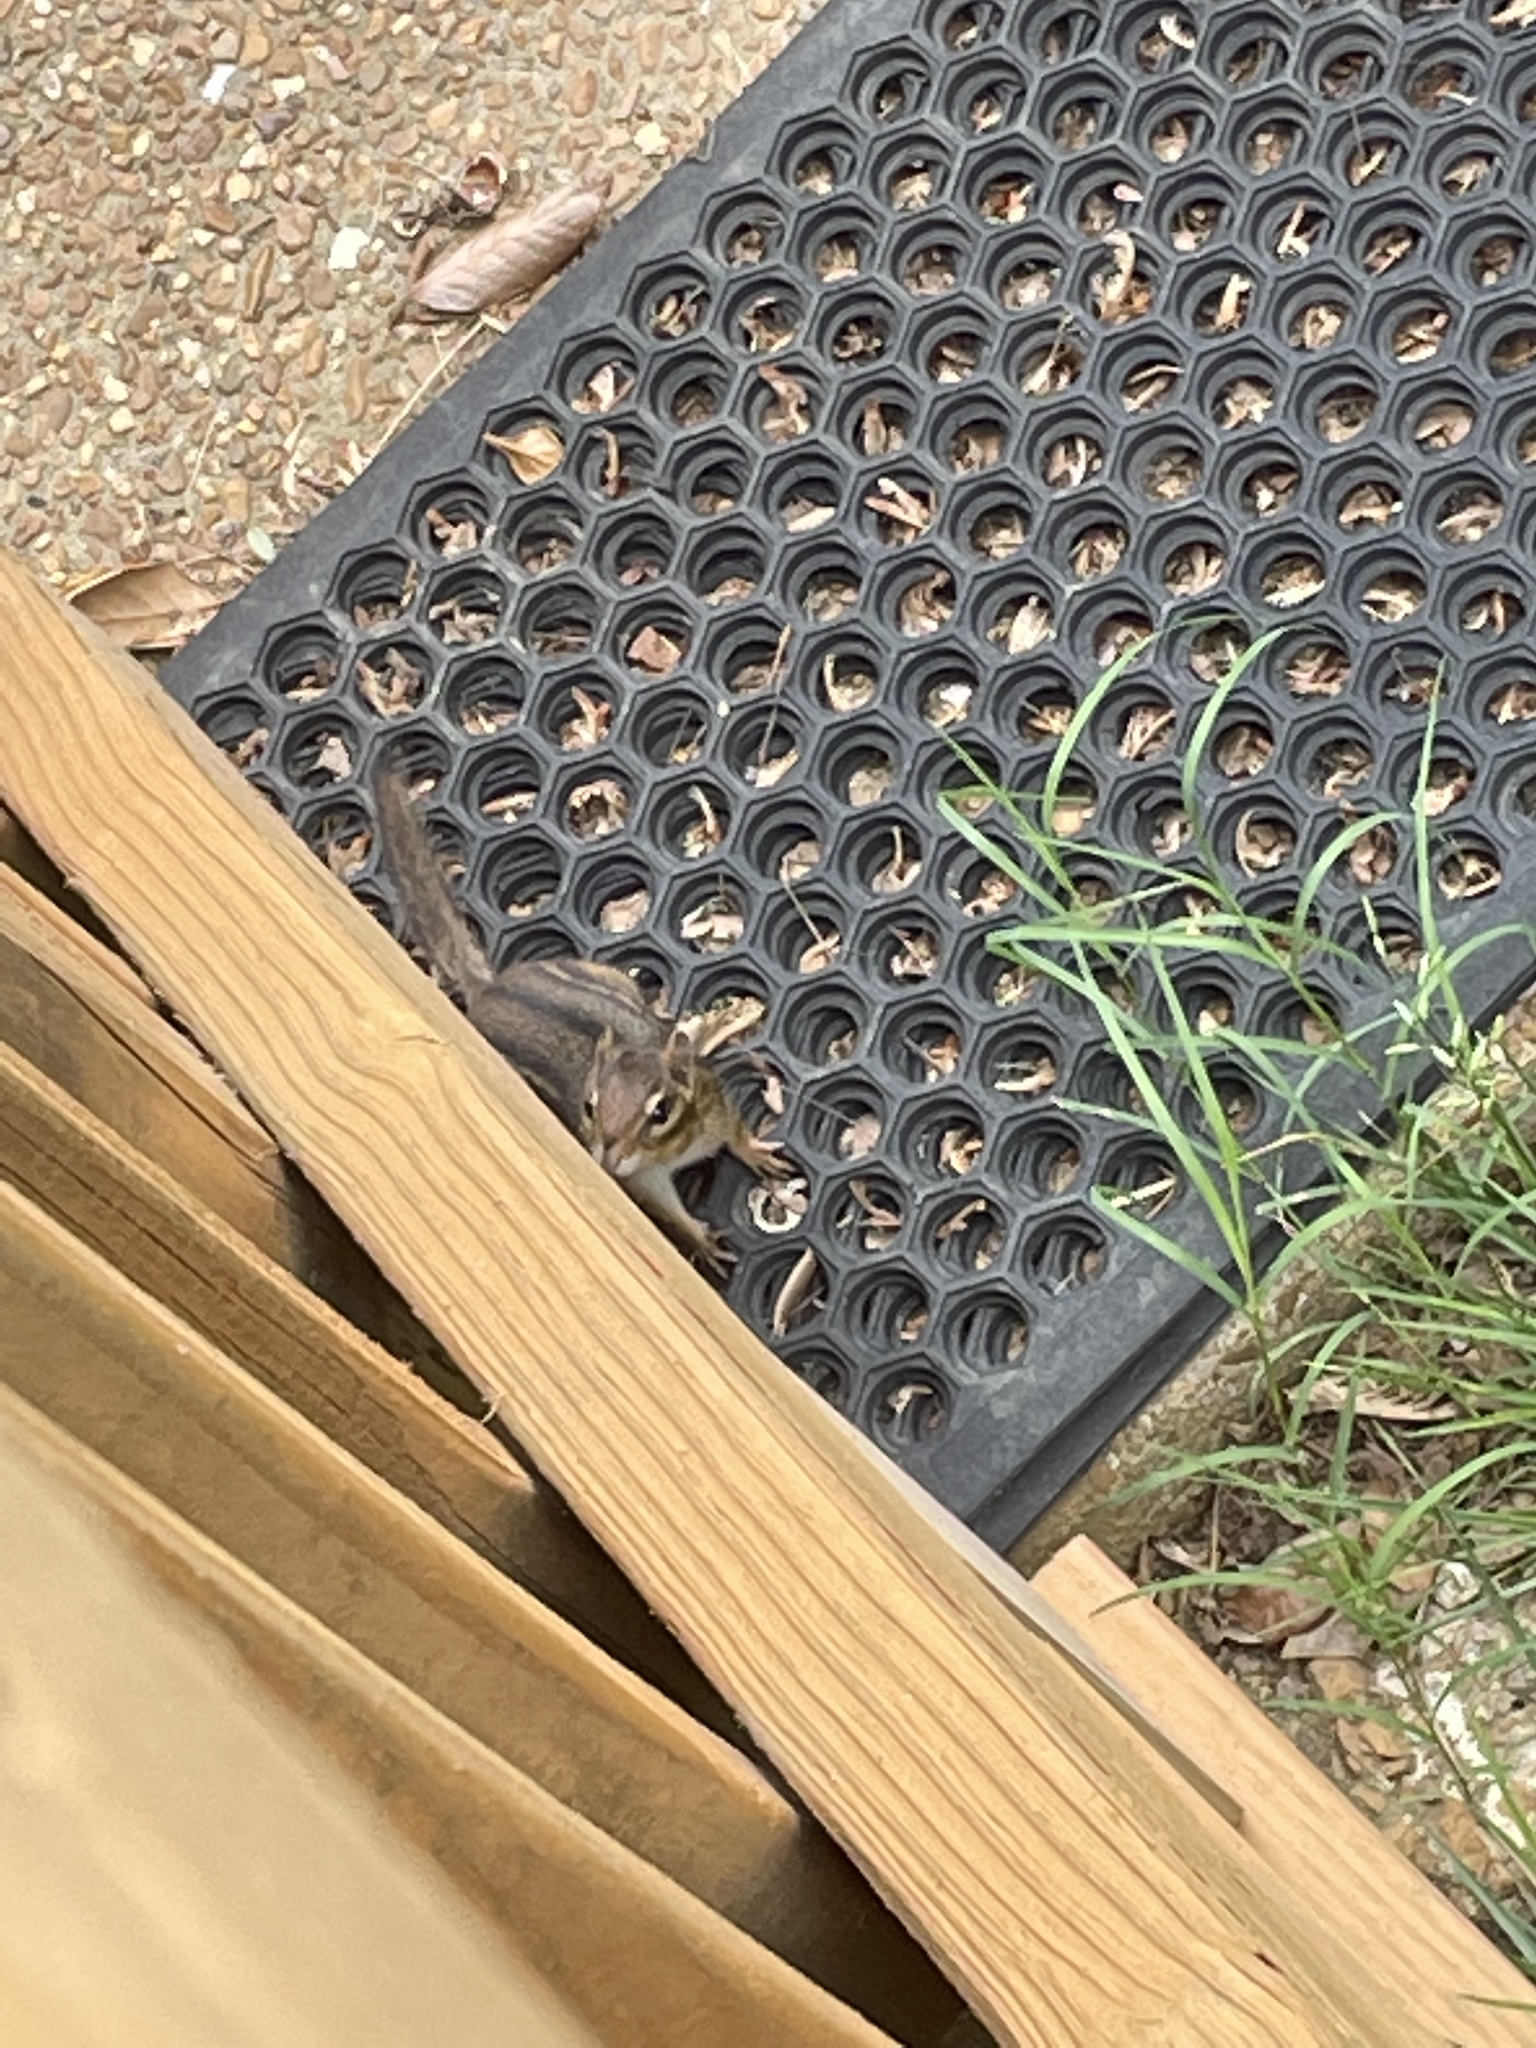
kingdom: Animalia
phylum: Chordata
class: Mammalia
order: Rodentia
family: Sciuridae
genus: Tamias
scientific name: Tamias striatus
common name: Eastern chipmunk
